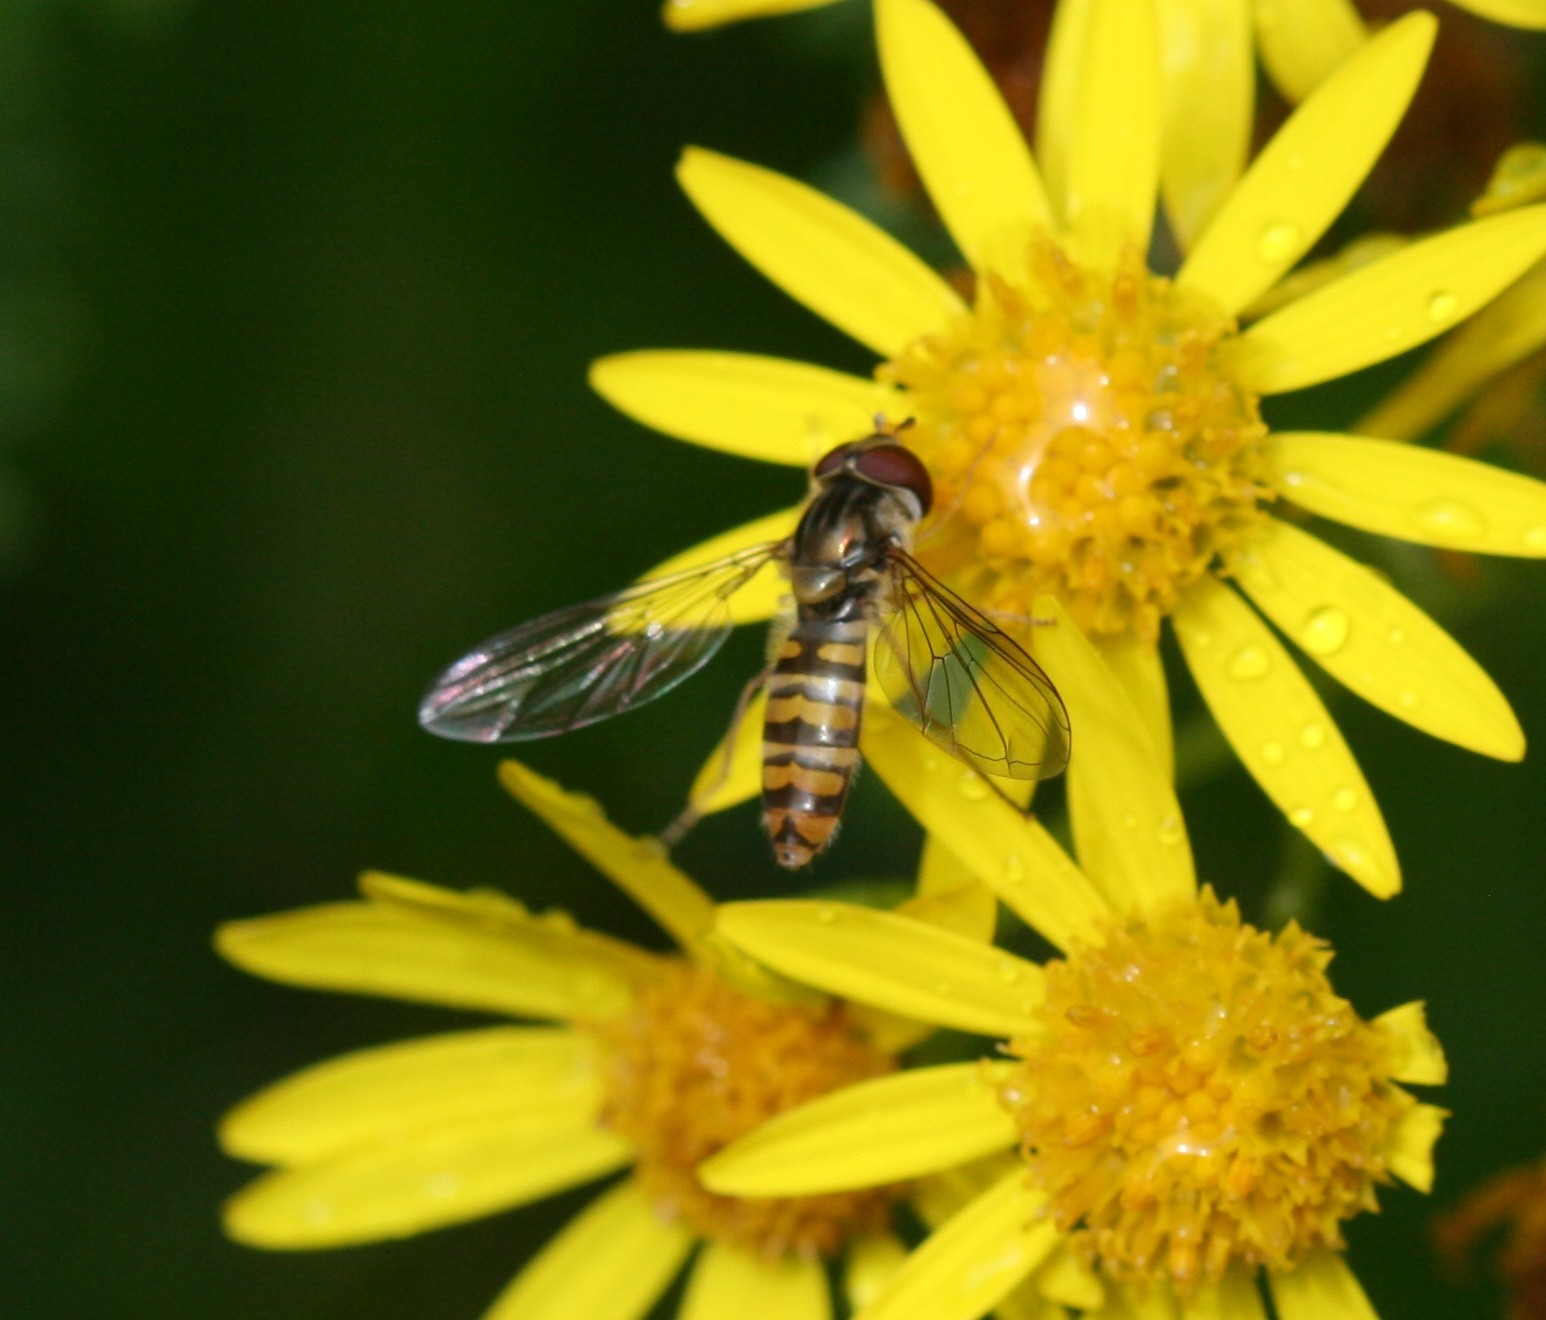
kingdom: Animalia
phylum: Arthropoda
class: Insecta
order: Diptera
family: Syrphidae
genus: Episyrphus
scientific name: Episyrphus balteatus
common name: Marmalade hoverfly
